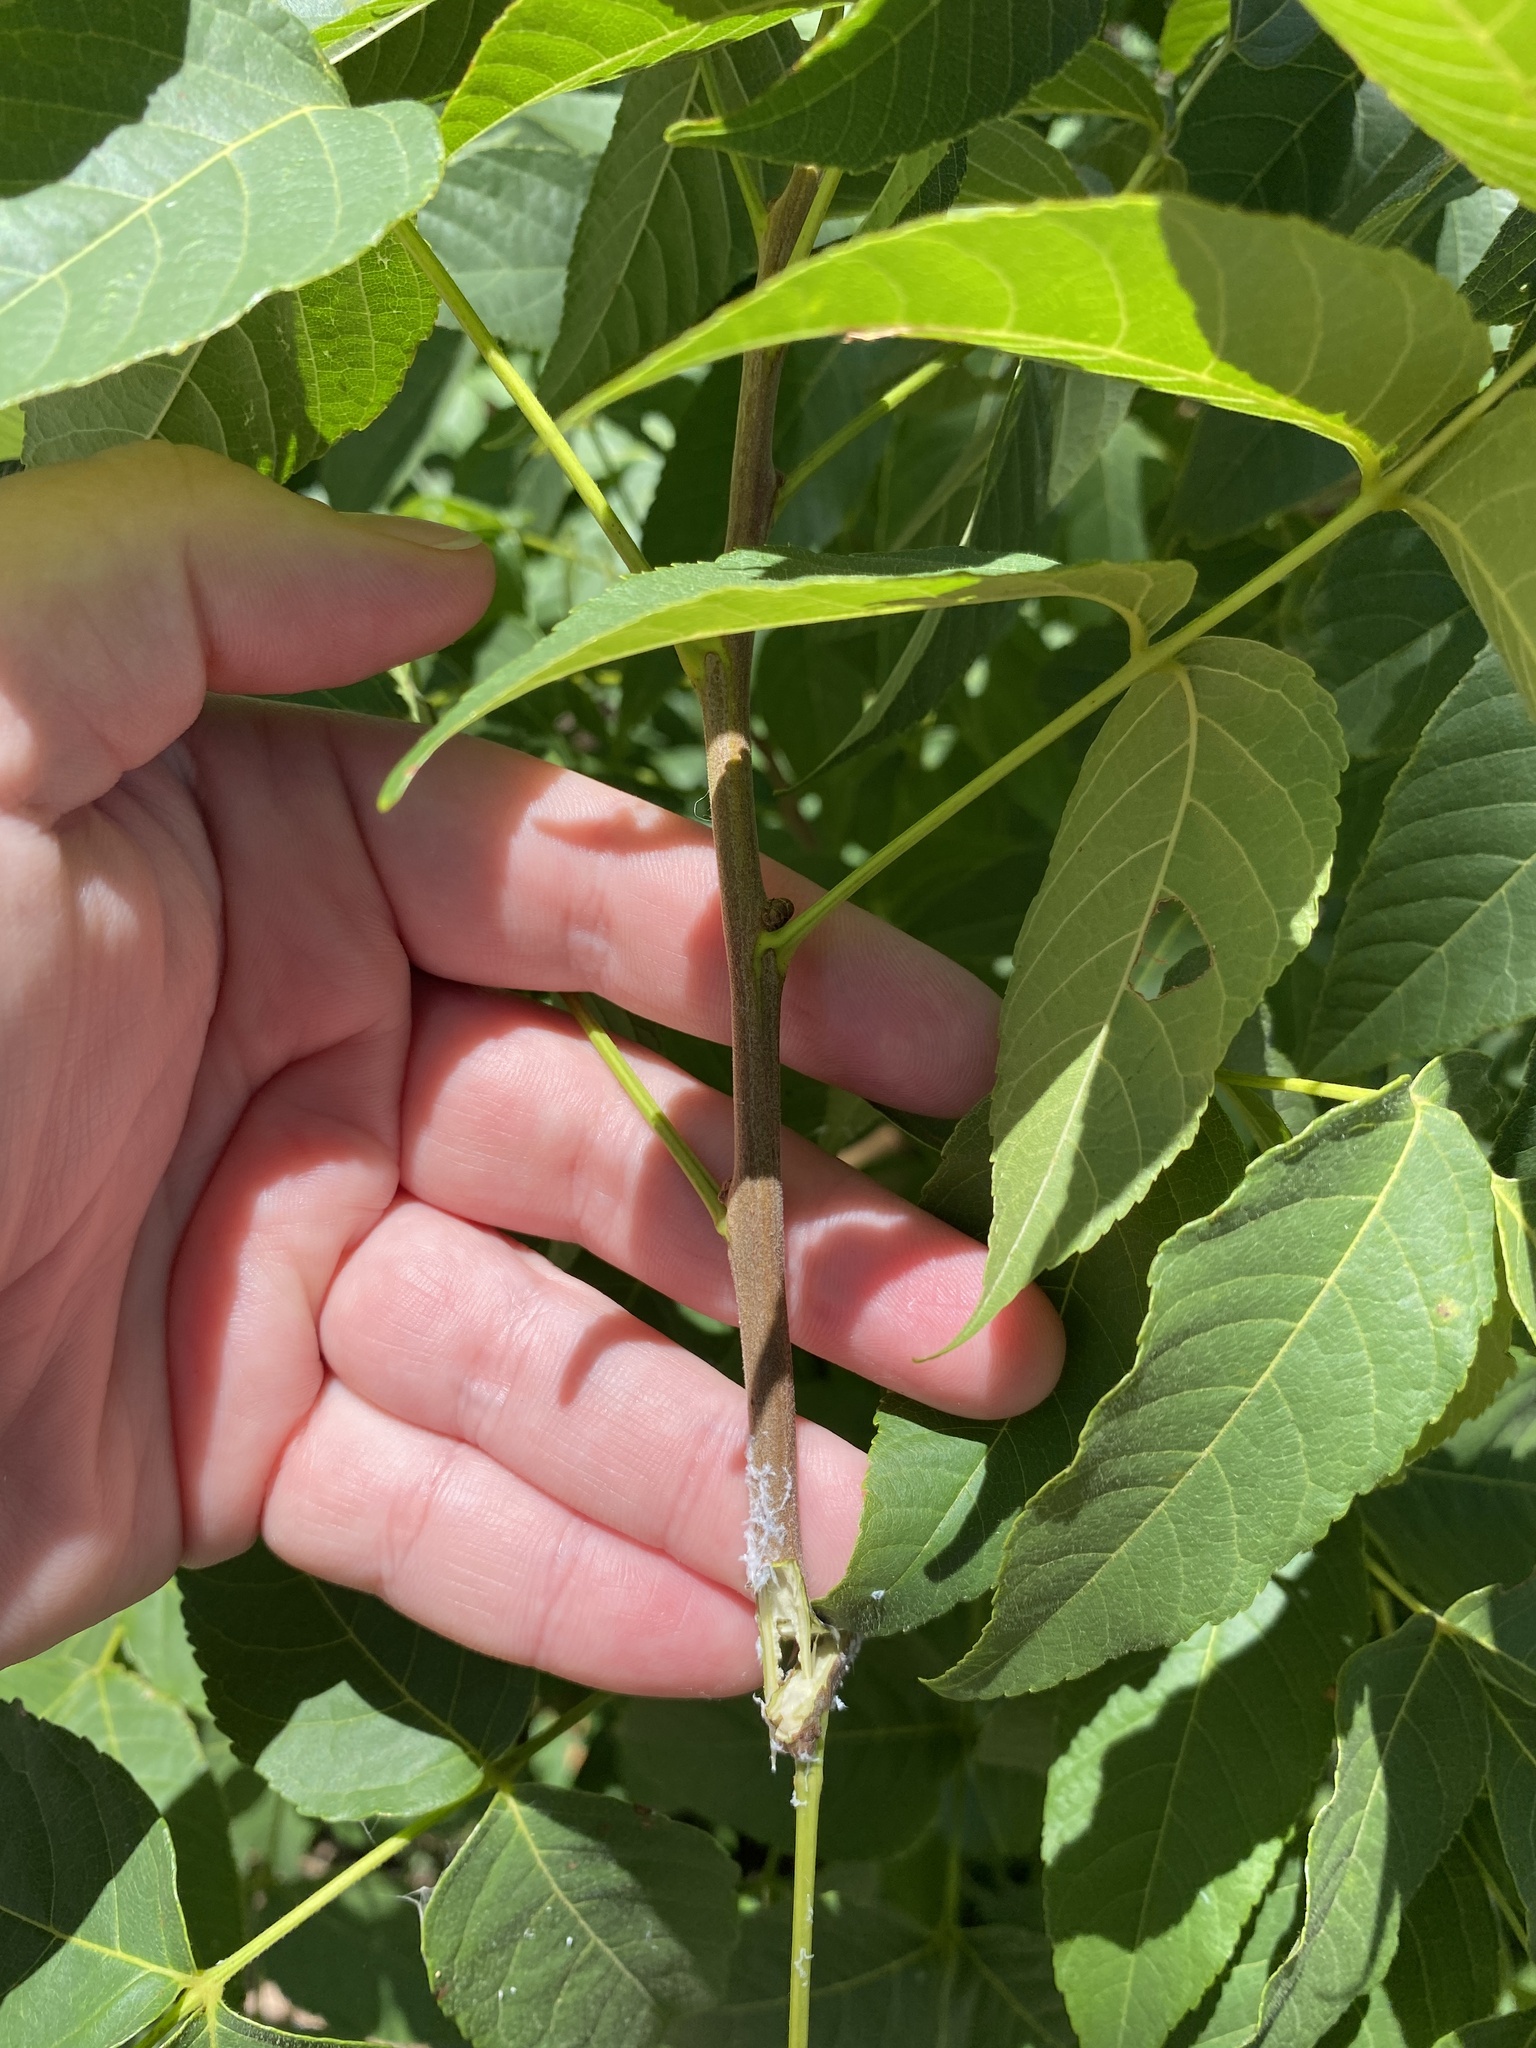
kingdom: Plantae
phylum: Tracheophyta
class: Magnoliopsida
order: Sapindales
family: Sapindaceae
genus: Ungnadia
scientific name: Ungnadia speciosa
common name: Texas-buckeye
